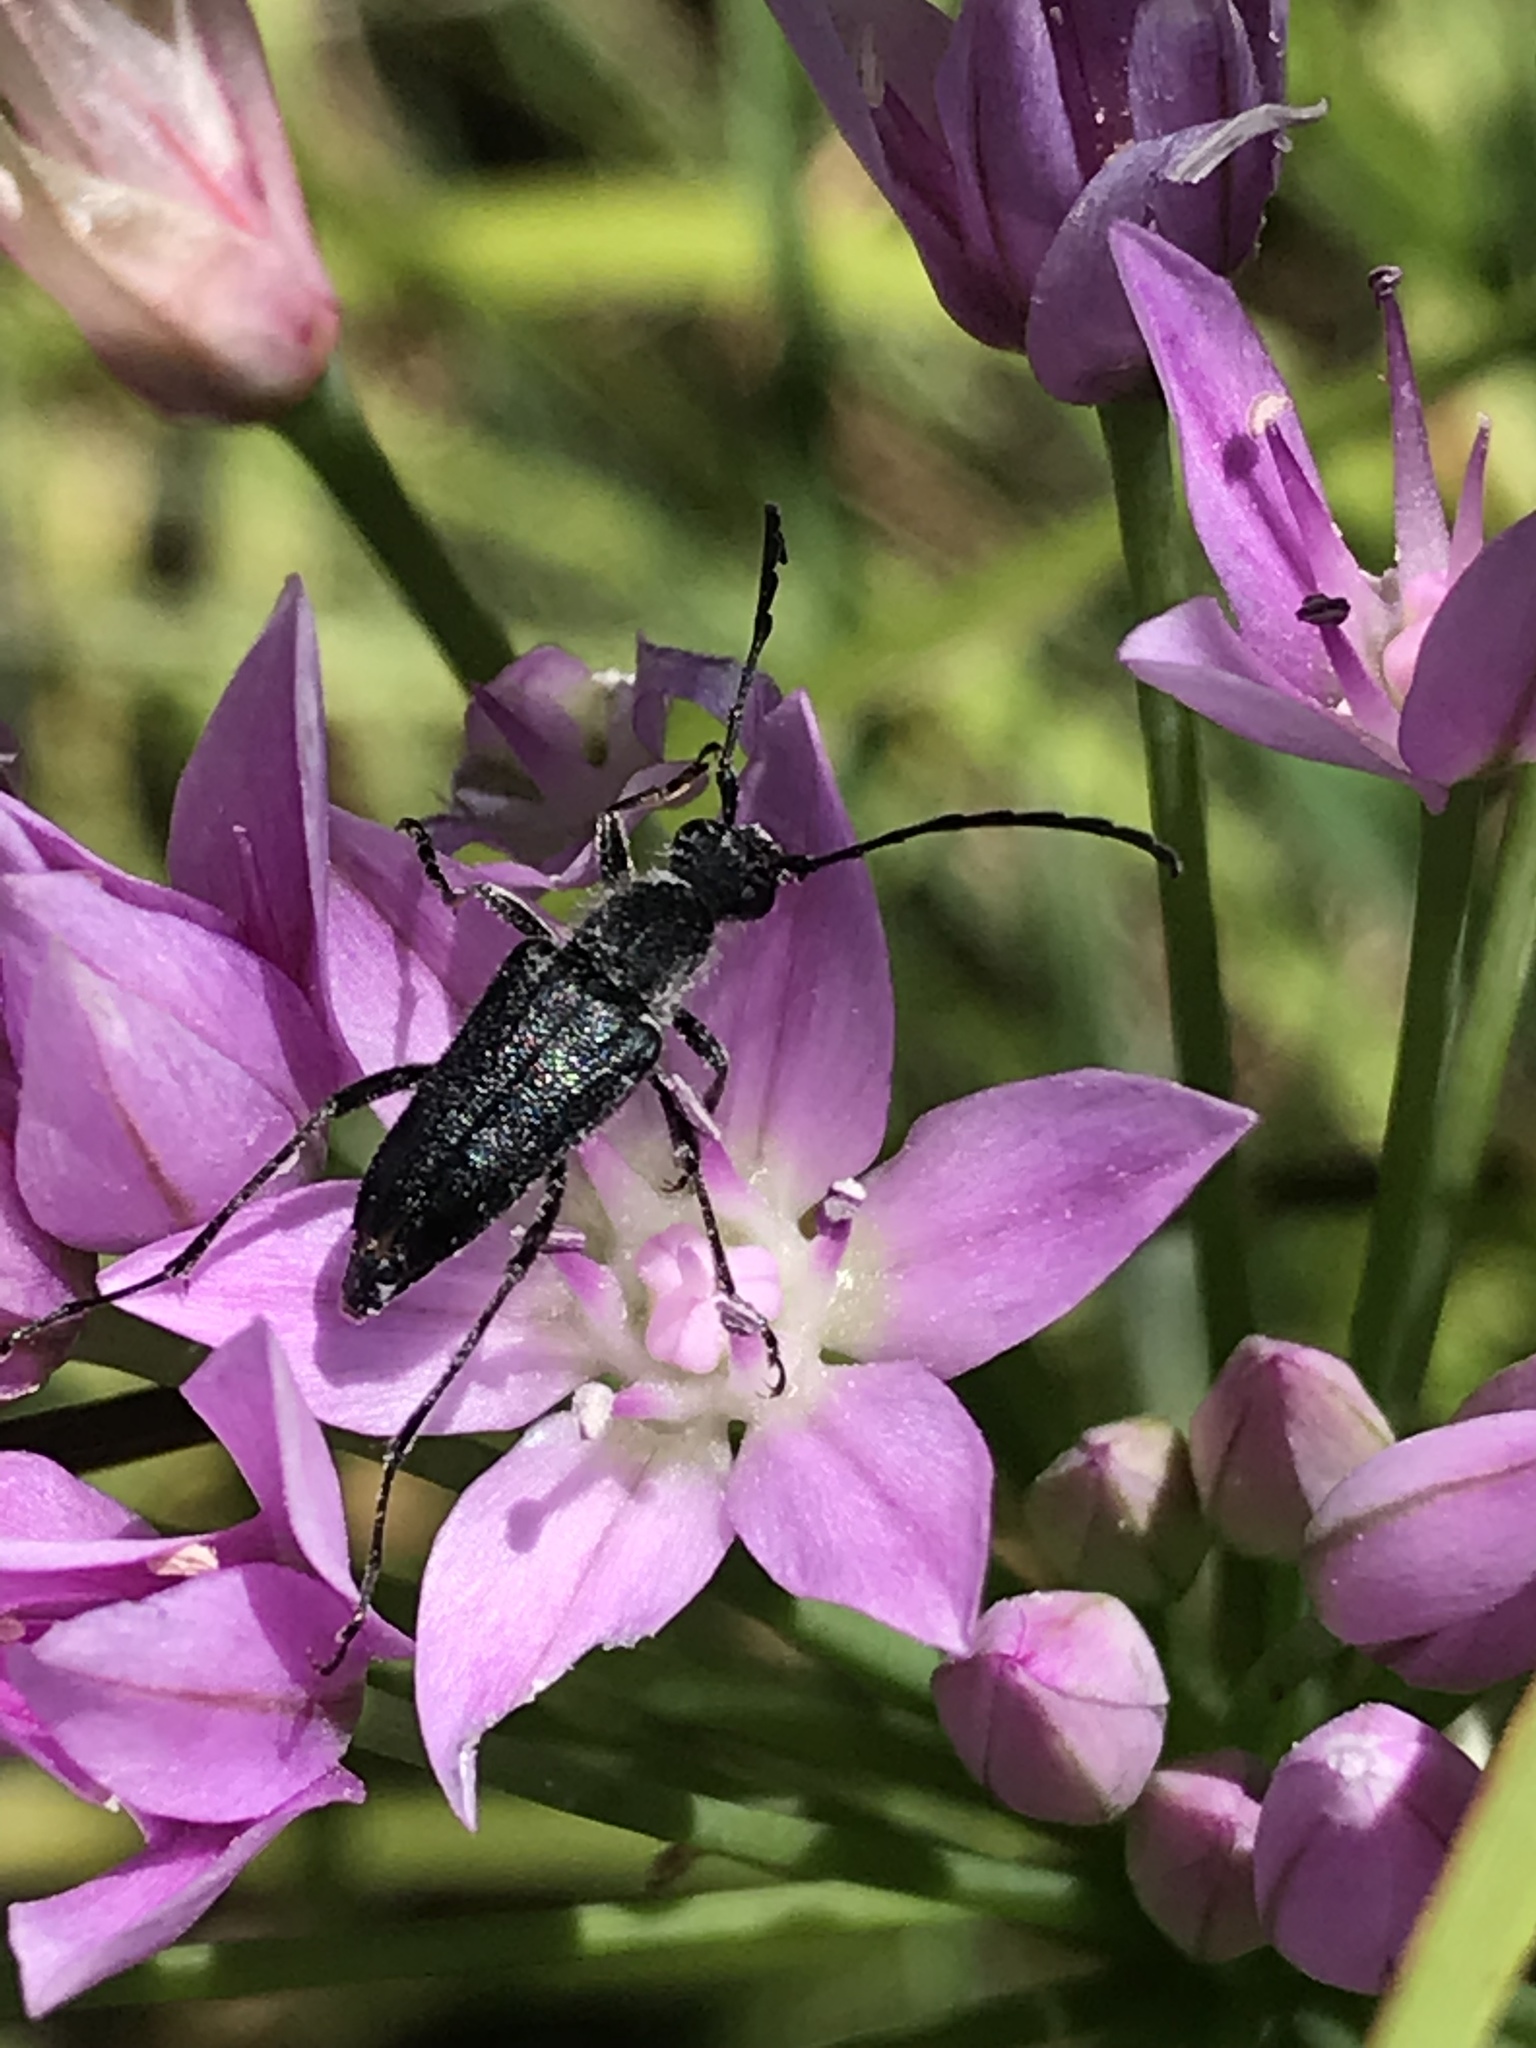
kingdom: Animalia
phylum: Arthropoda
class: Insecta
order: Coleoptera
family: Cerambycidae
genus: Anastrangalia
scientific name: Anastrangalia laetifica
